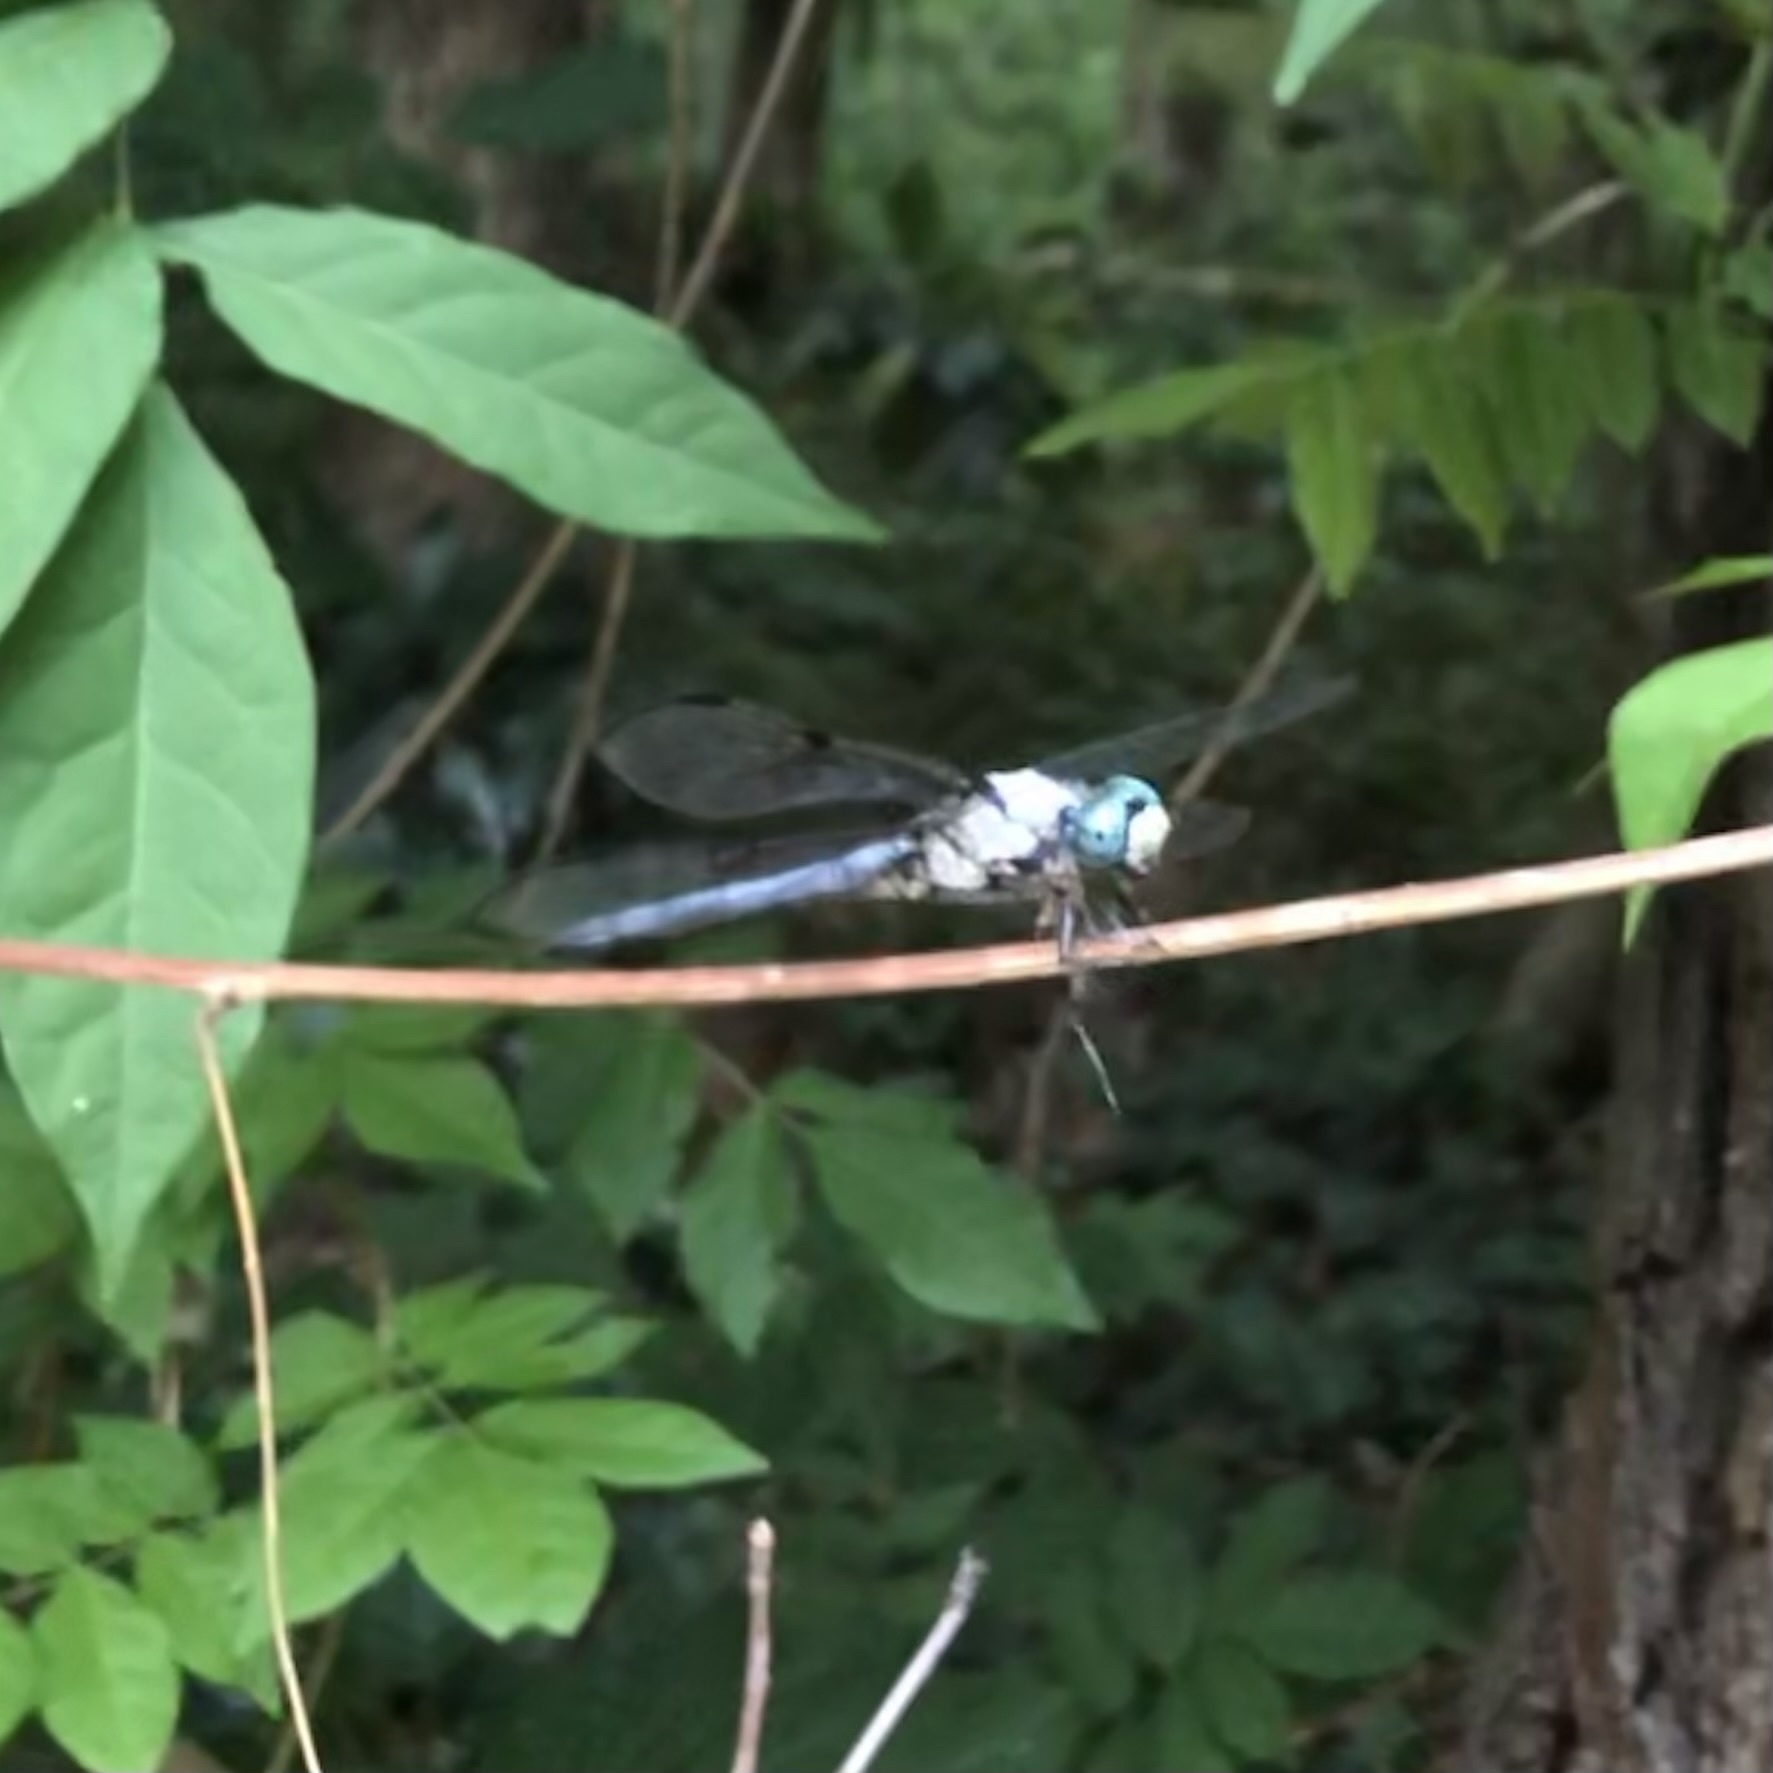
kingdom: Animalia
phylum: Arthropoda
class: Insecta
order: Odonata
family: Libellulidae
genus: Libellula
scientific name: Libellula vibrans
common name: Great blue skimmer
